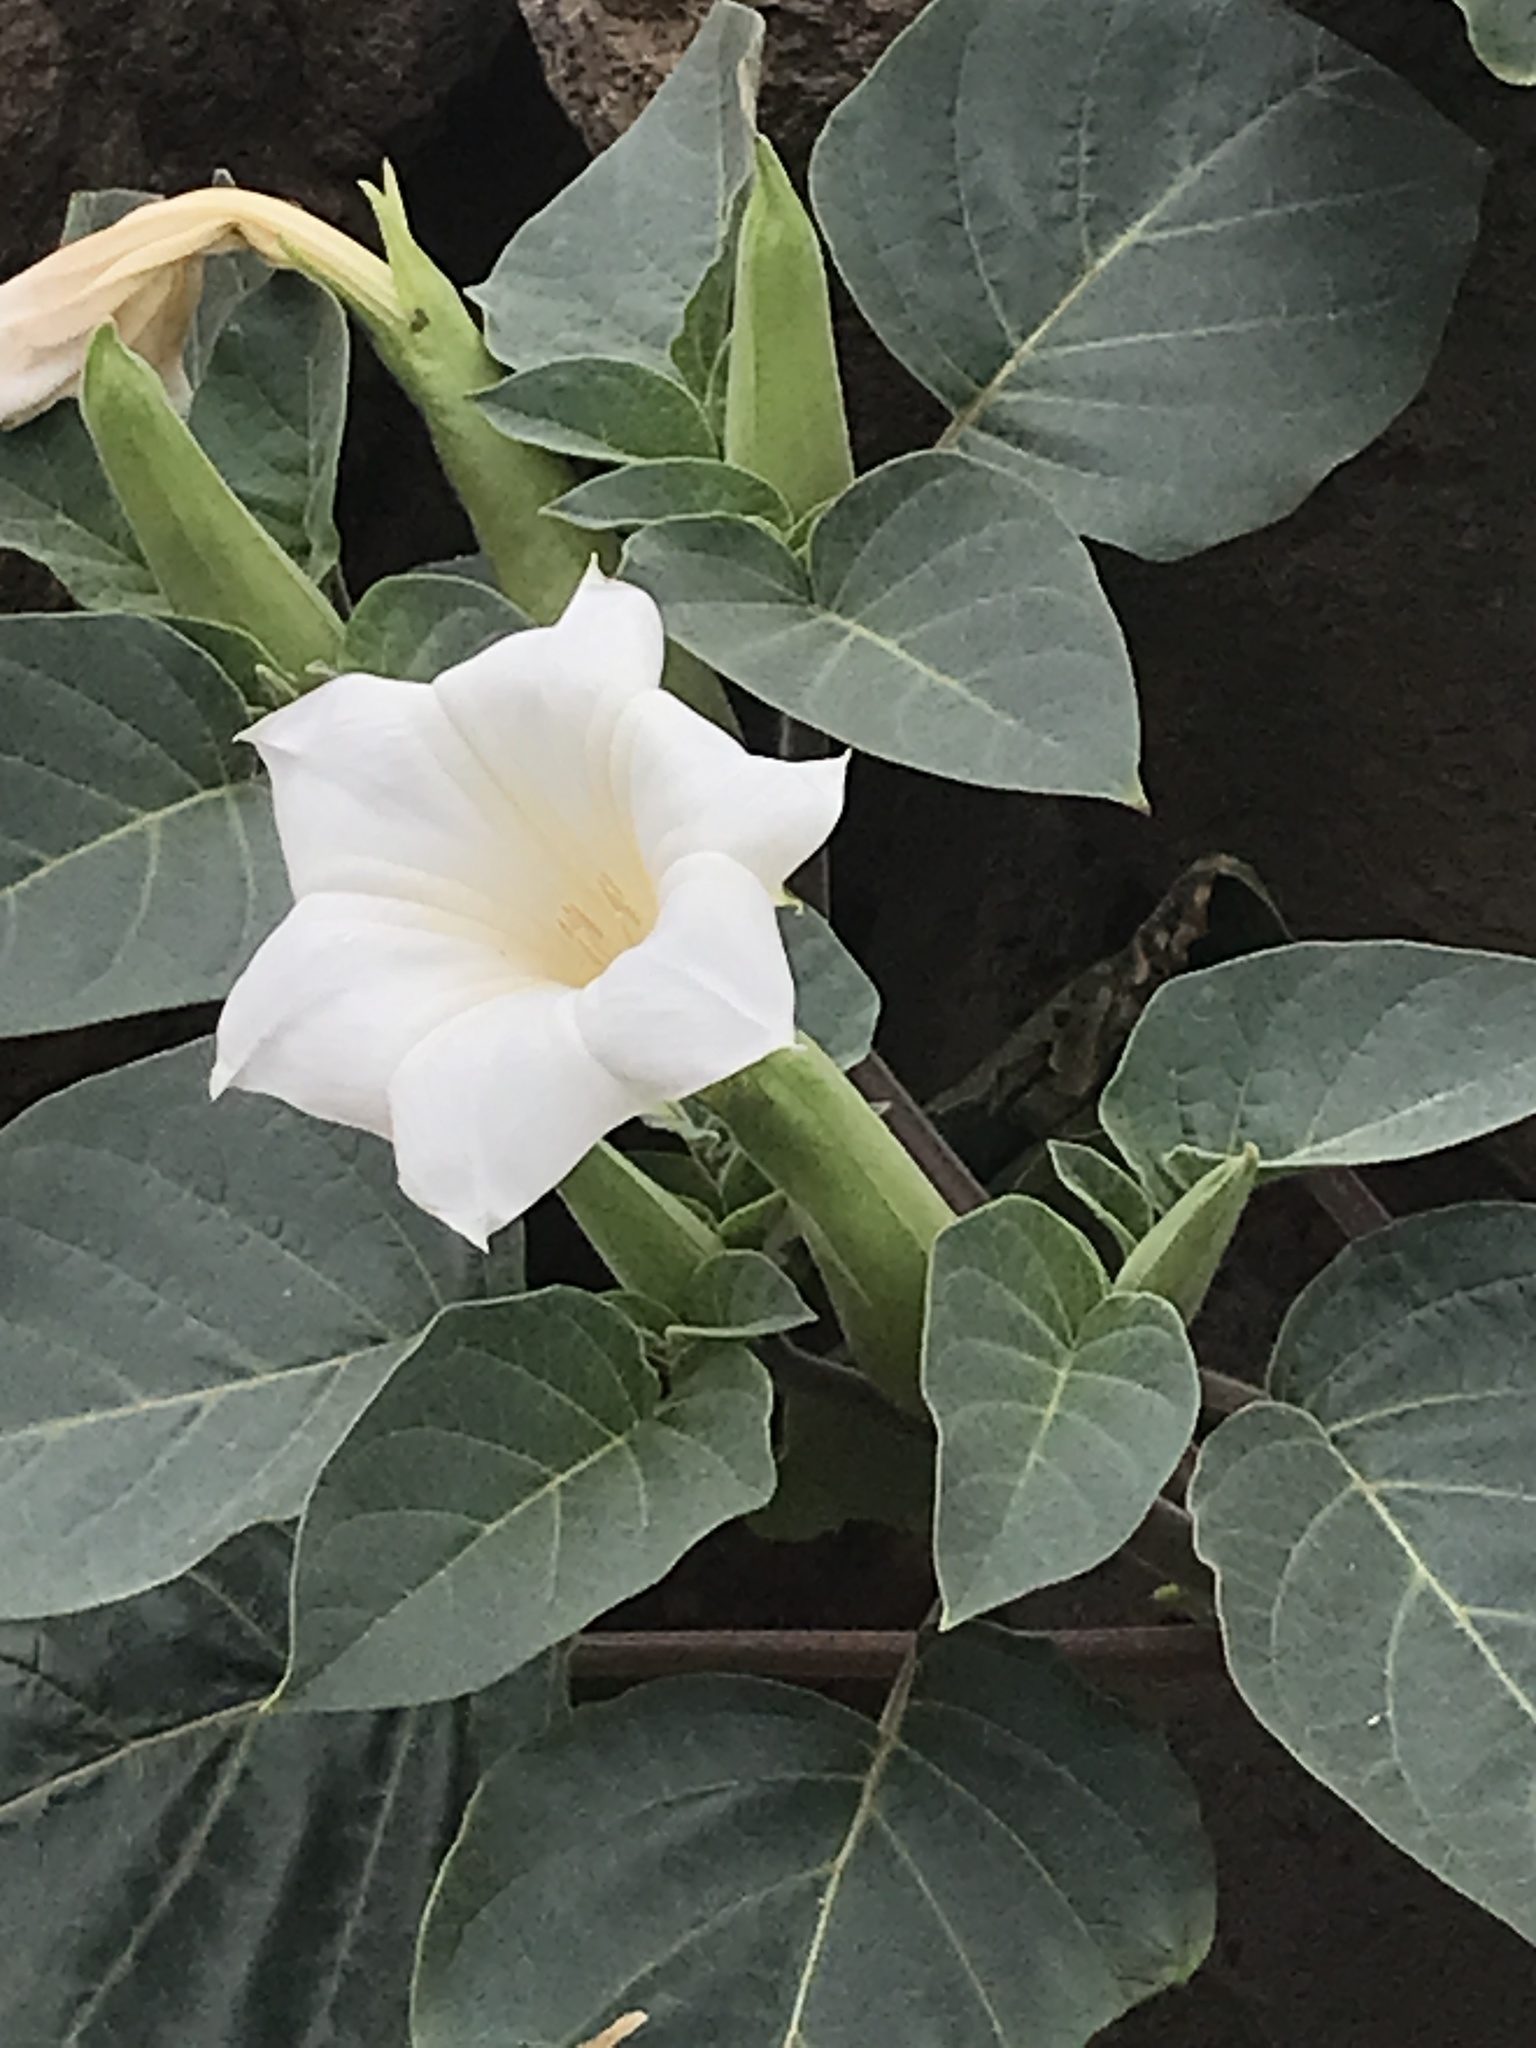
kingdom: Plantae
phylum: Tracheophyta
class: Magnoliopsida
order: Solanales
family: Solanaceae
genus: Datura
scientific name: Datura innoxia
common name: Downy thorn-apple
